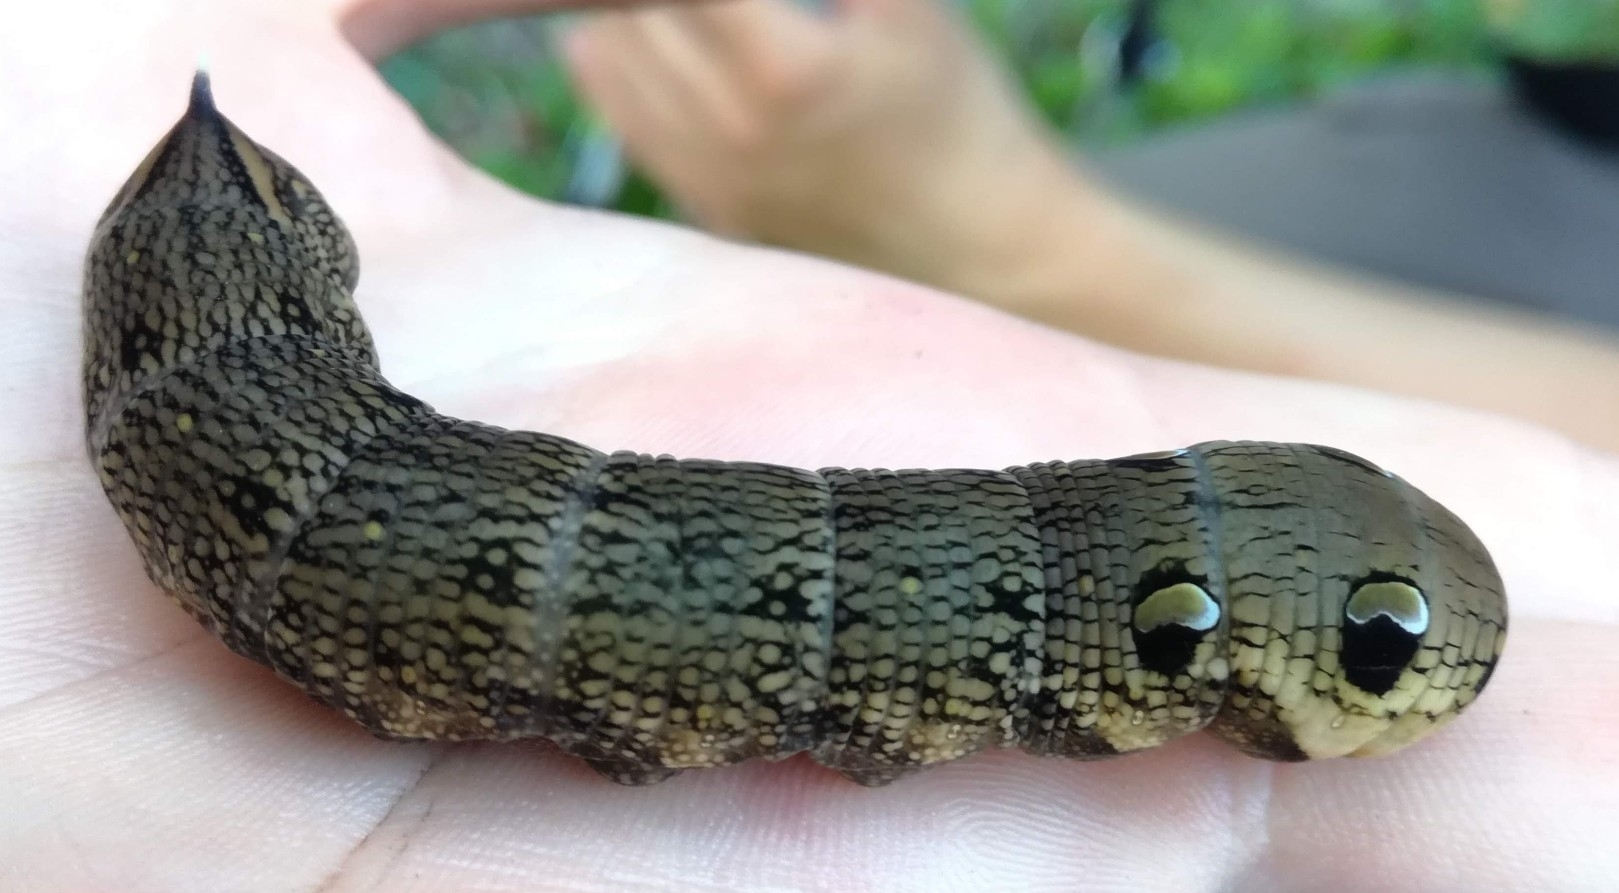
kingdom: Animalia
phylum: Arthropoda
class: Insecta
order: Lepidoptera
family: Sphingidae
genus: Deilephila
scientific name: Deilephila elpenor
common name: Elephant hawk-moth
